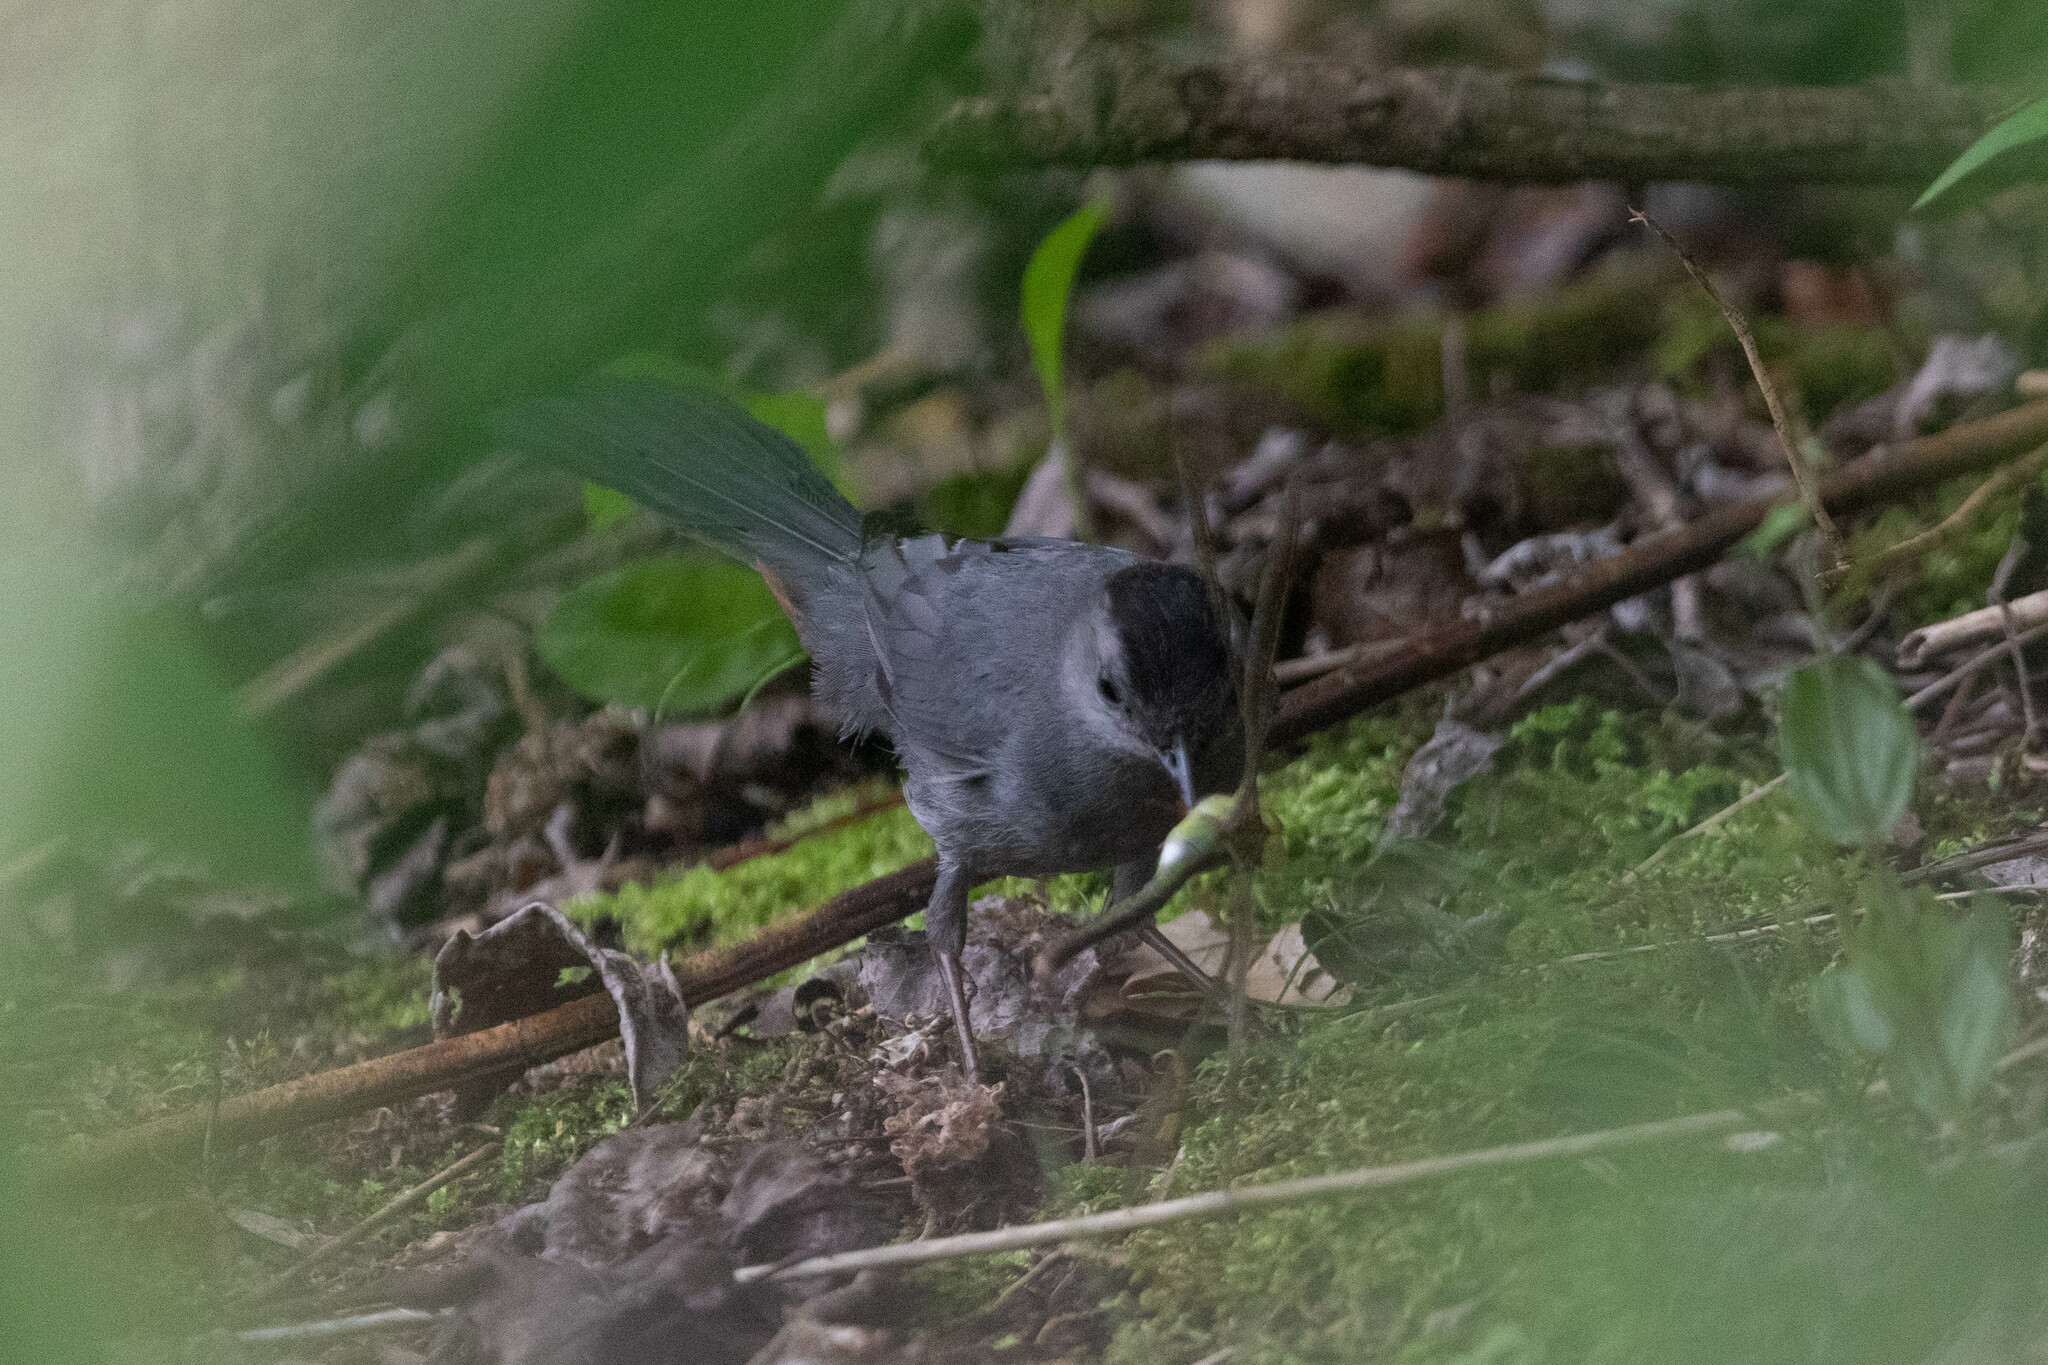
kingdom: Animalia
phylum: Arthropoda
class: Insecta
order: Odonata
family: Aeshnidae
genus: Anax
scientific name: Anax junius
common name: Common green darner
